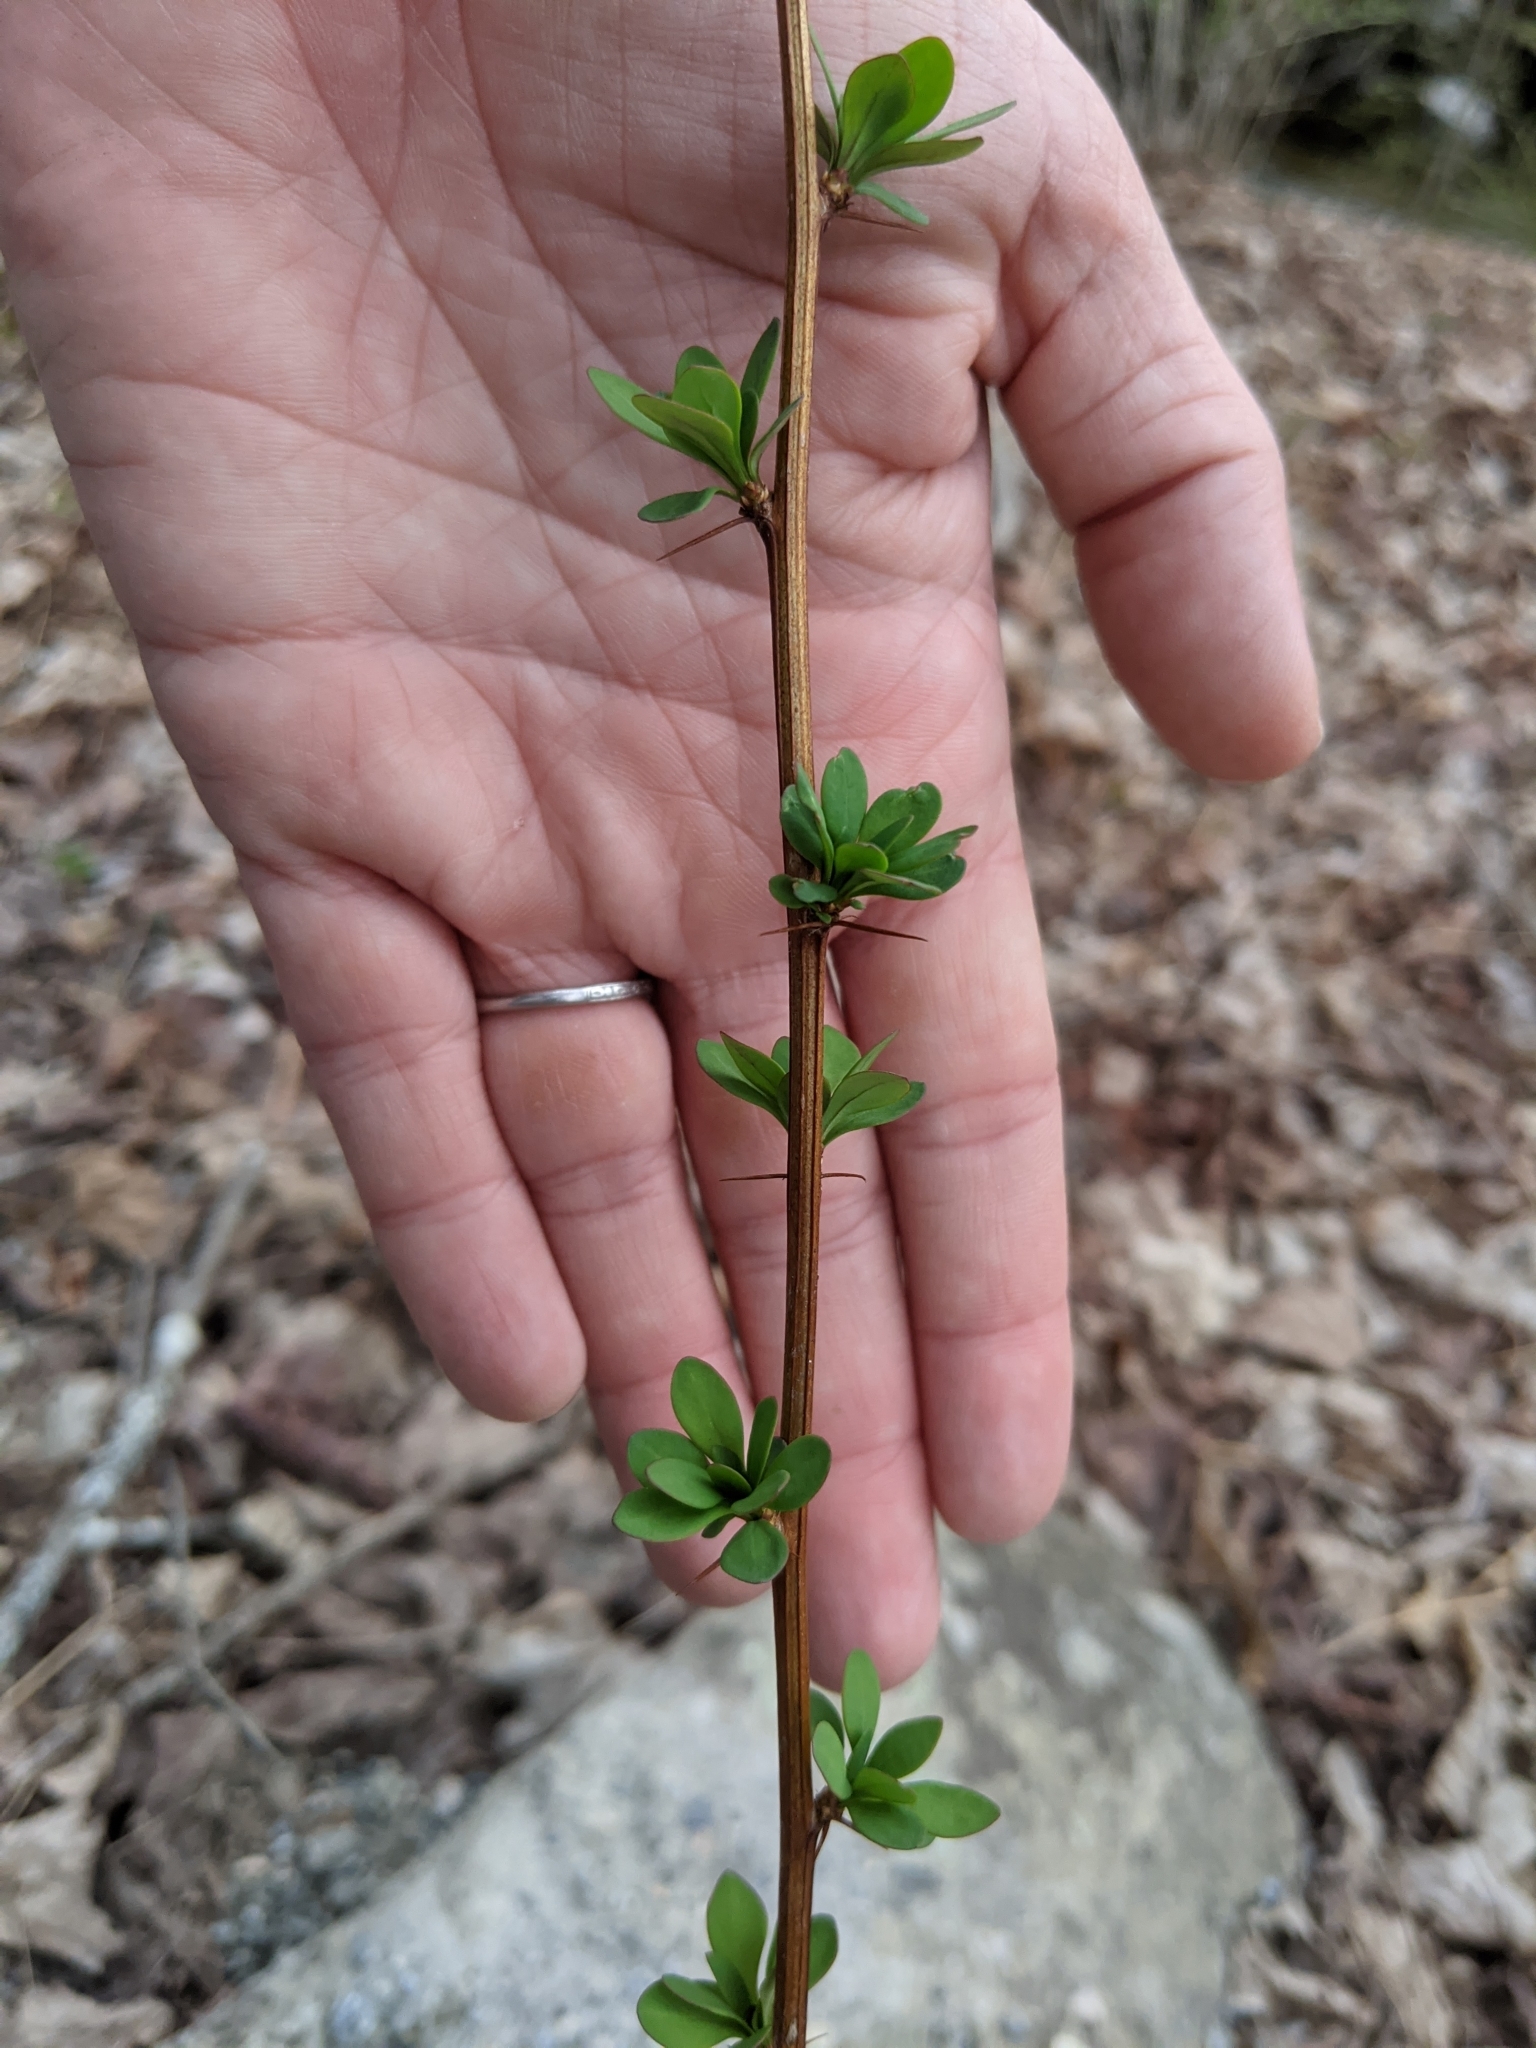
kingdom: Plantae
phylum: Tracheophyta
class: Magnoliopsida
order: Ranunculales
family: Berberidaceae
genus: Berberis
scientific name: Berberis thunbergii
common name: Japanese barberry
